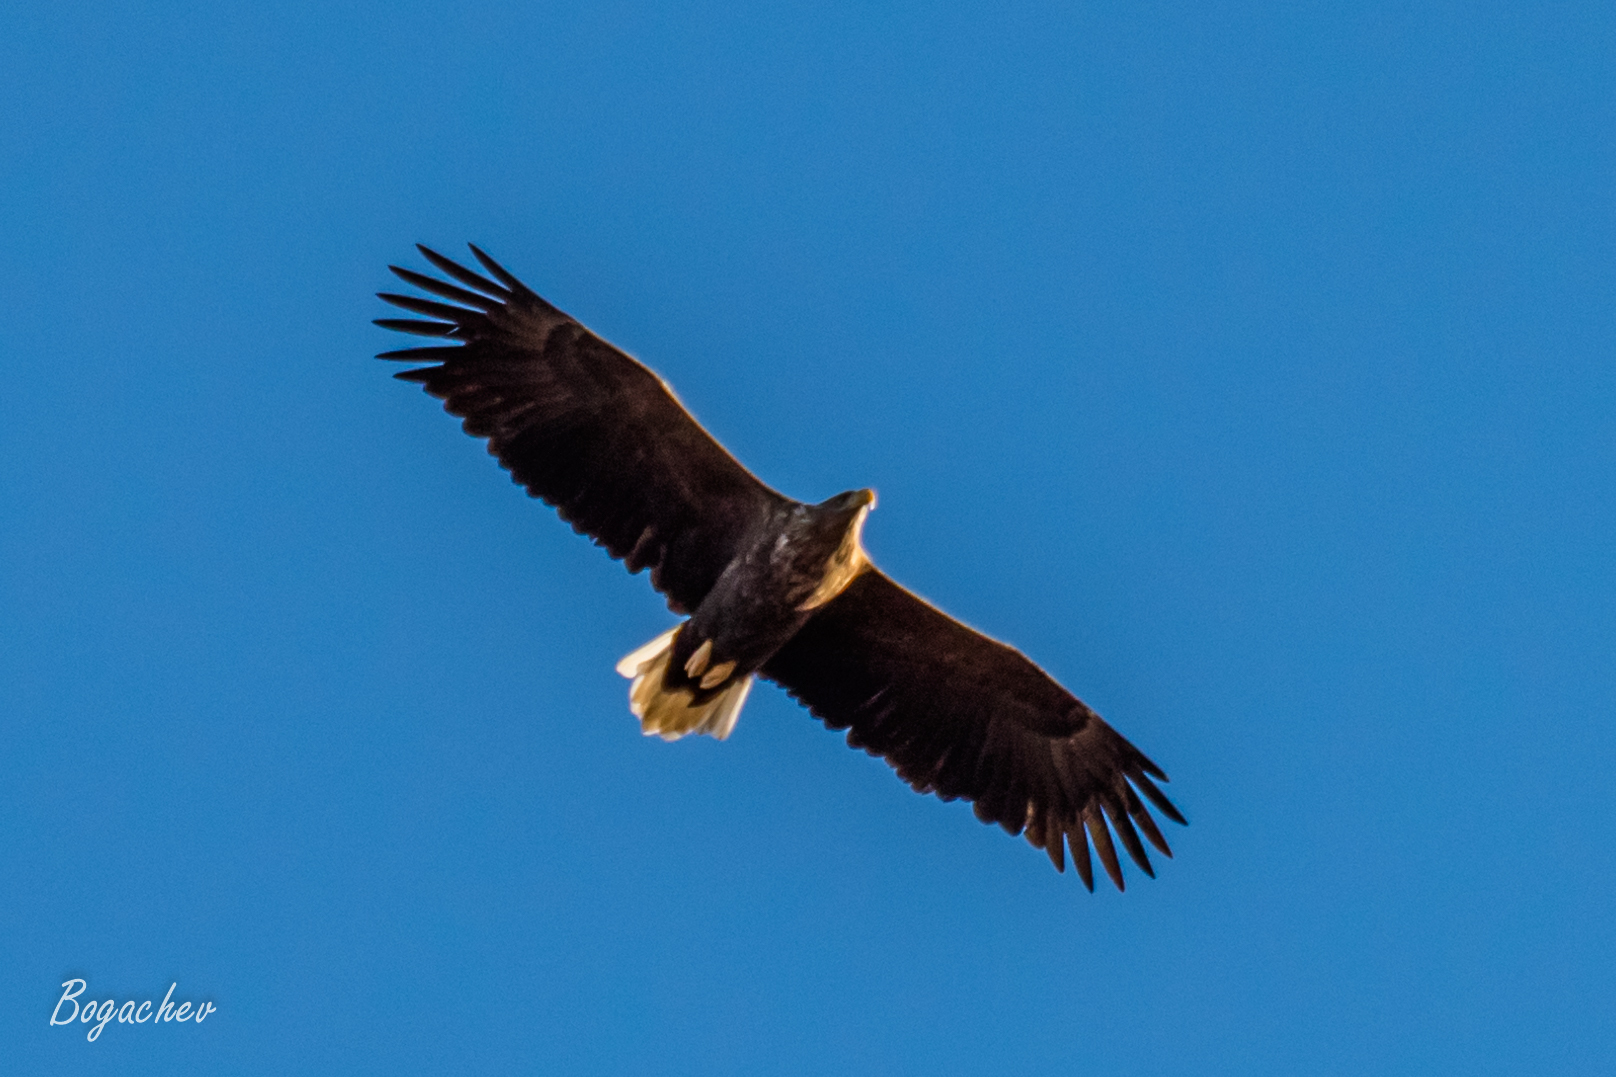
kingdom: Animalia
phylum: Chordata
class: Aves
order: Accipitriformes
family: Accipitridae
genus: Haliaeetus
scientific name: Haliaeetus albicilla
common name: White-tailed eagle
